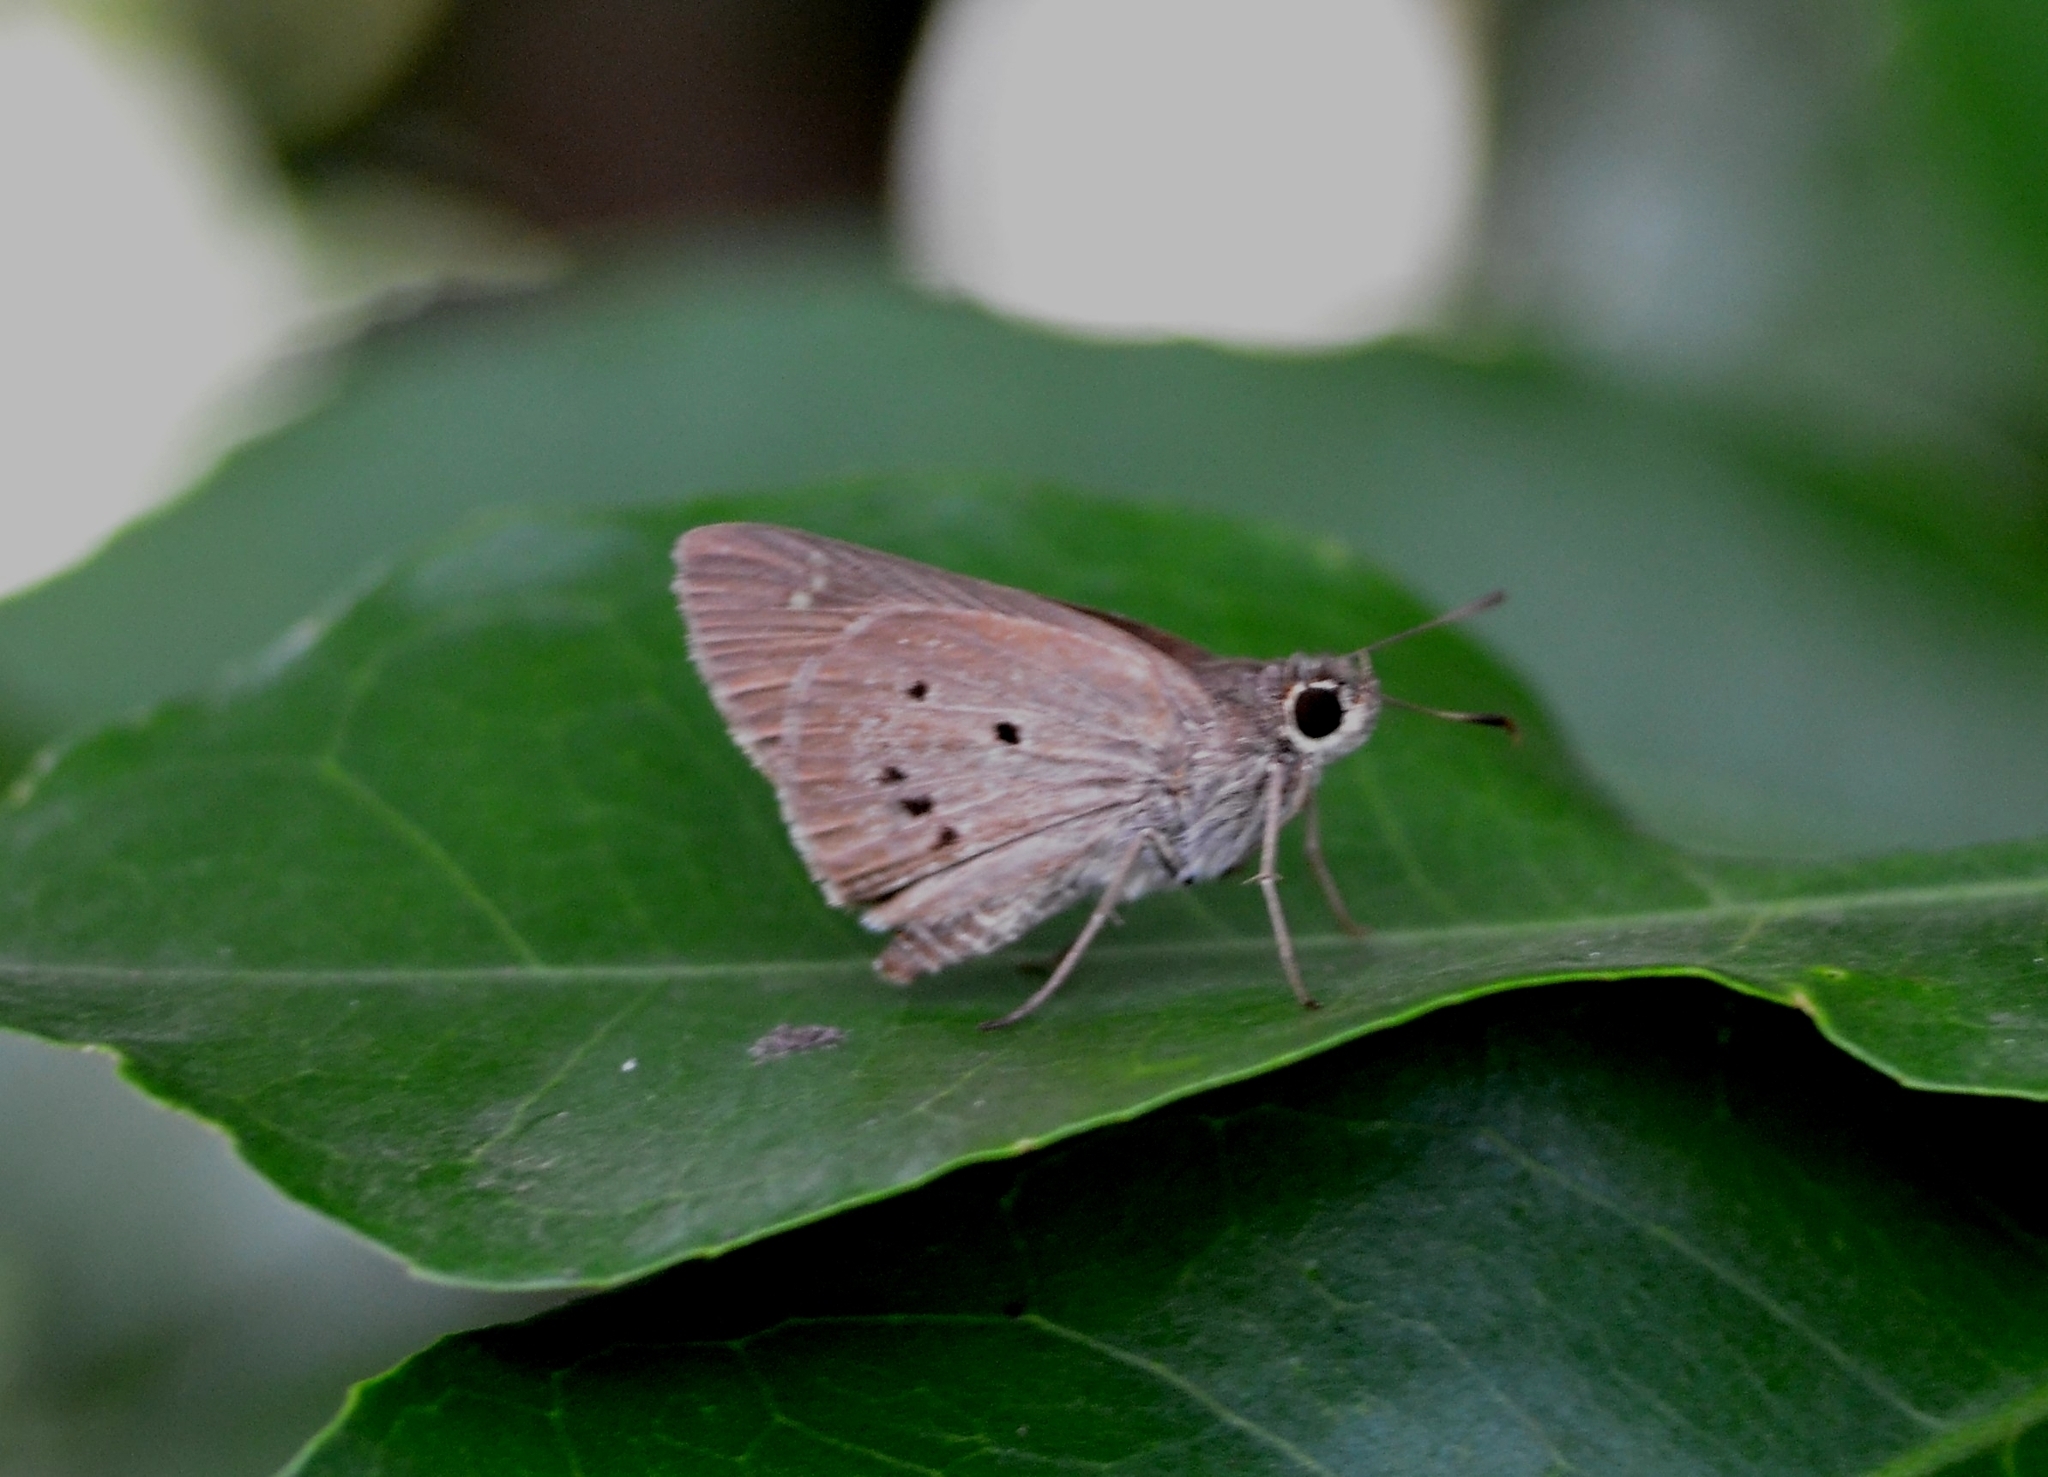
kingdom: Animalia
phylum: Arthropoda
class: Insecta
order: Lepidoptera
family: Hesperiidae
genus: Suastus
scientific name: Suastus gremius
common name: Indian palm bob
